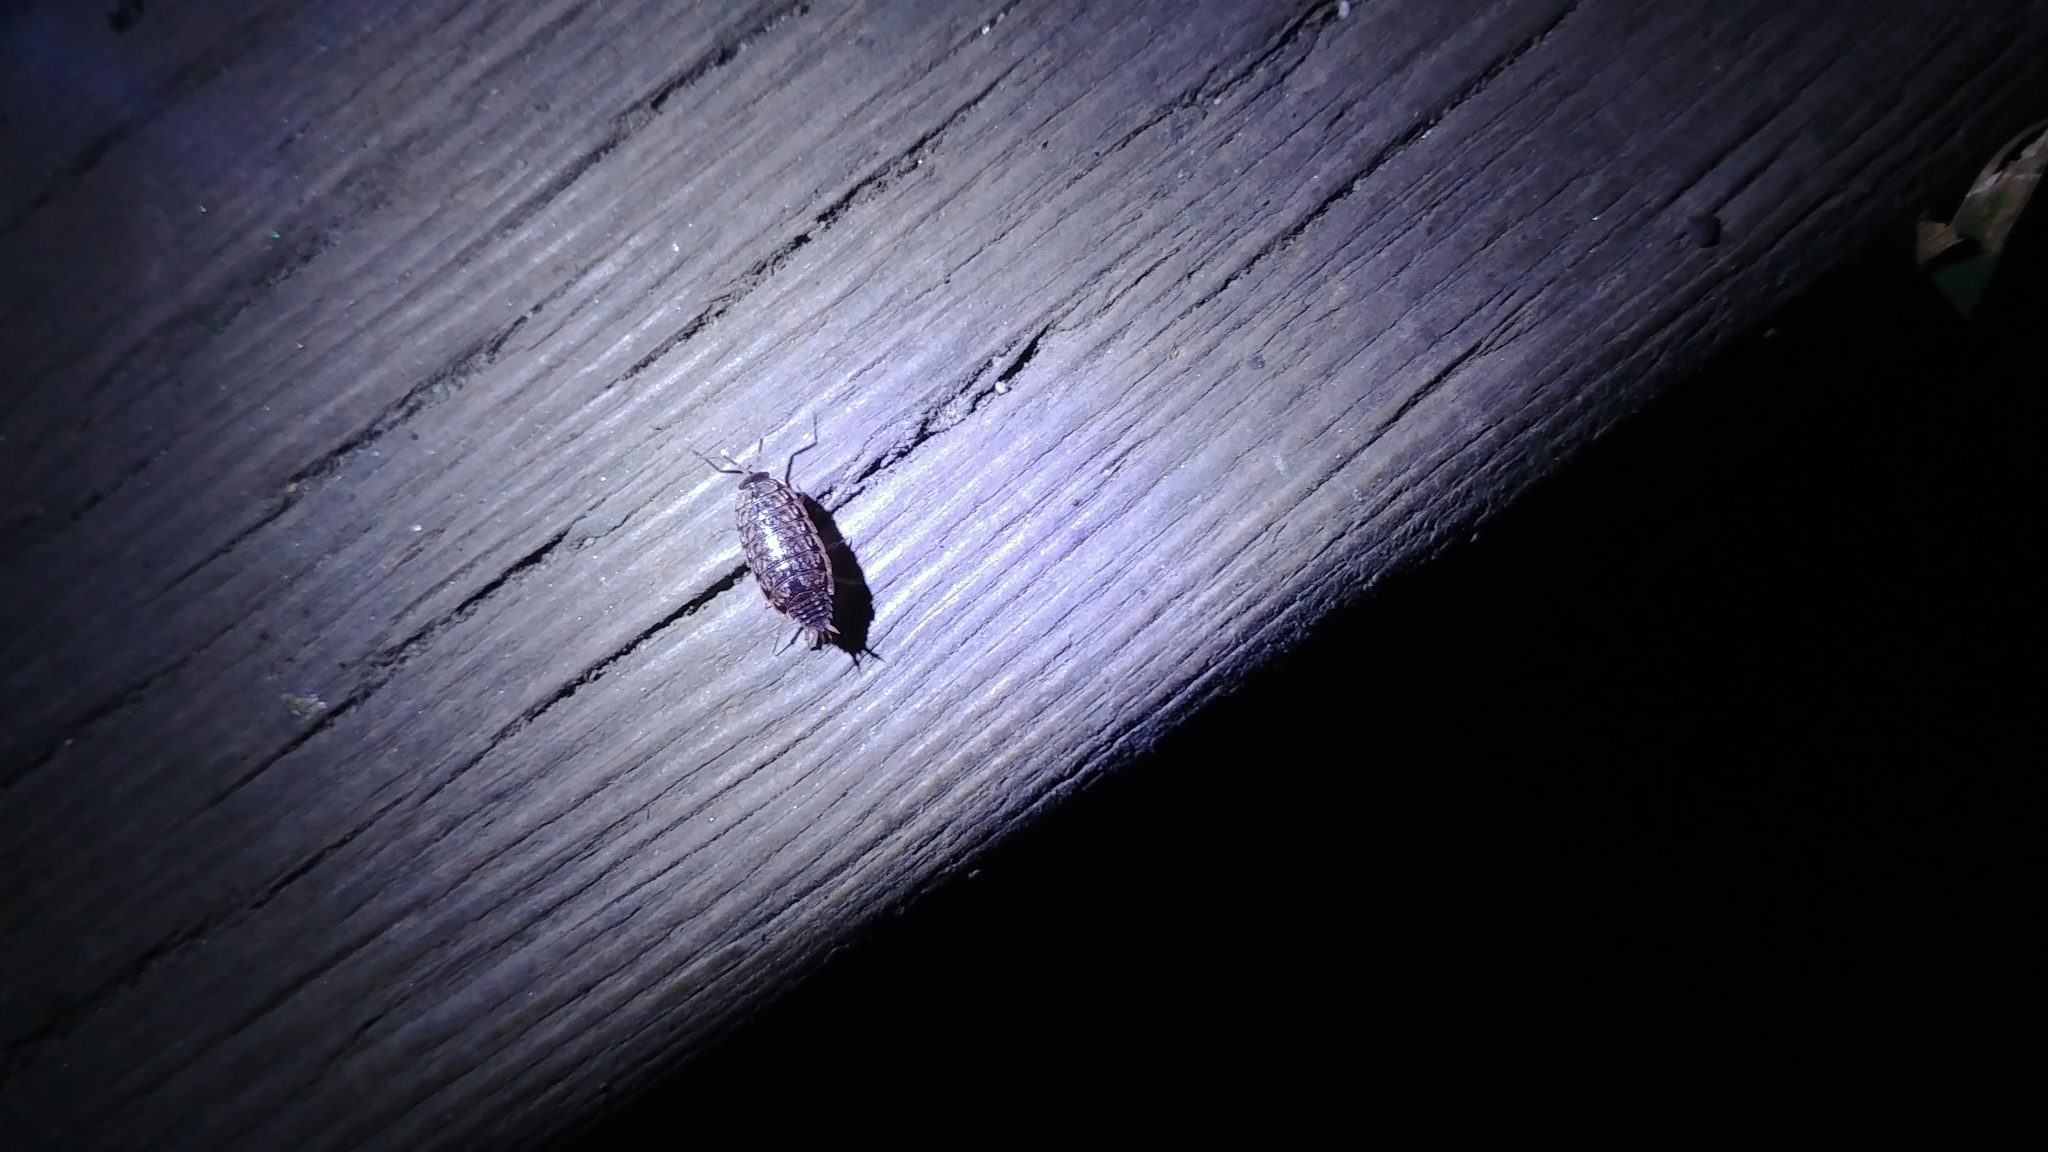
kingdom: Animalia
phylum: Arthropoda
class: Malacostraca
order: Isopoda
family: Philosciidae
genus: Philoscia
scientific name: Philoscia muscorum
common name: Common striped woodlouse
